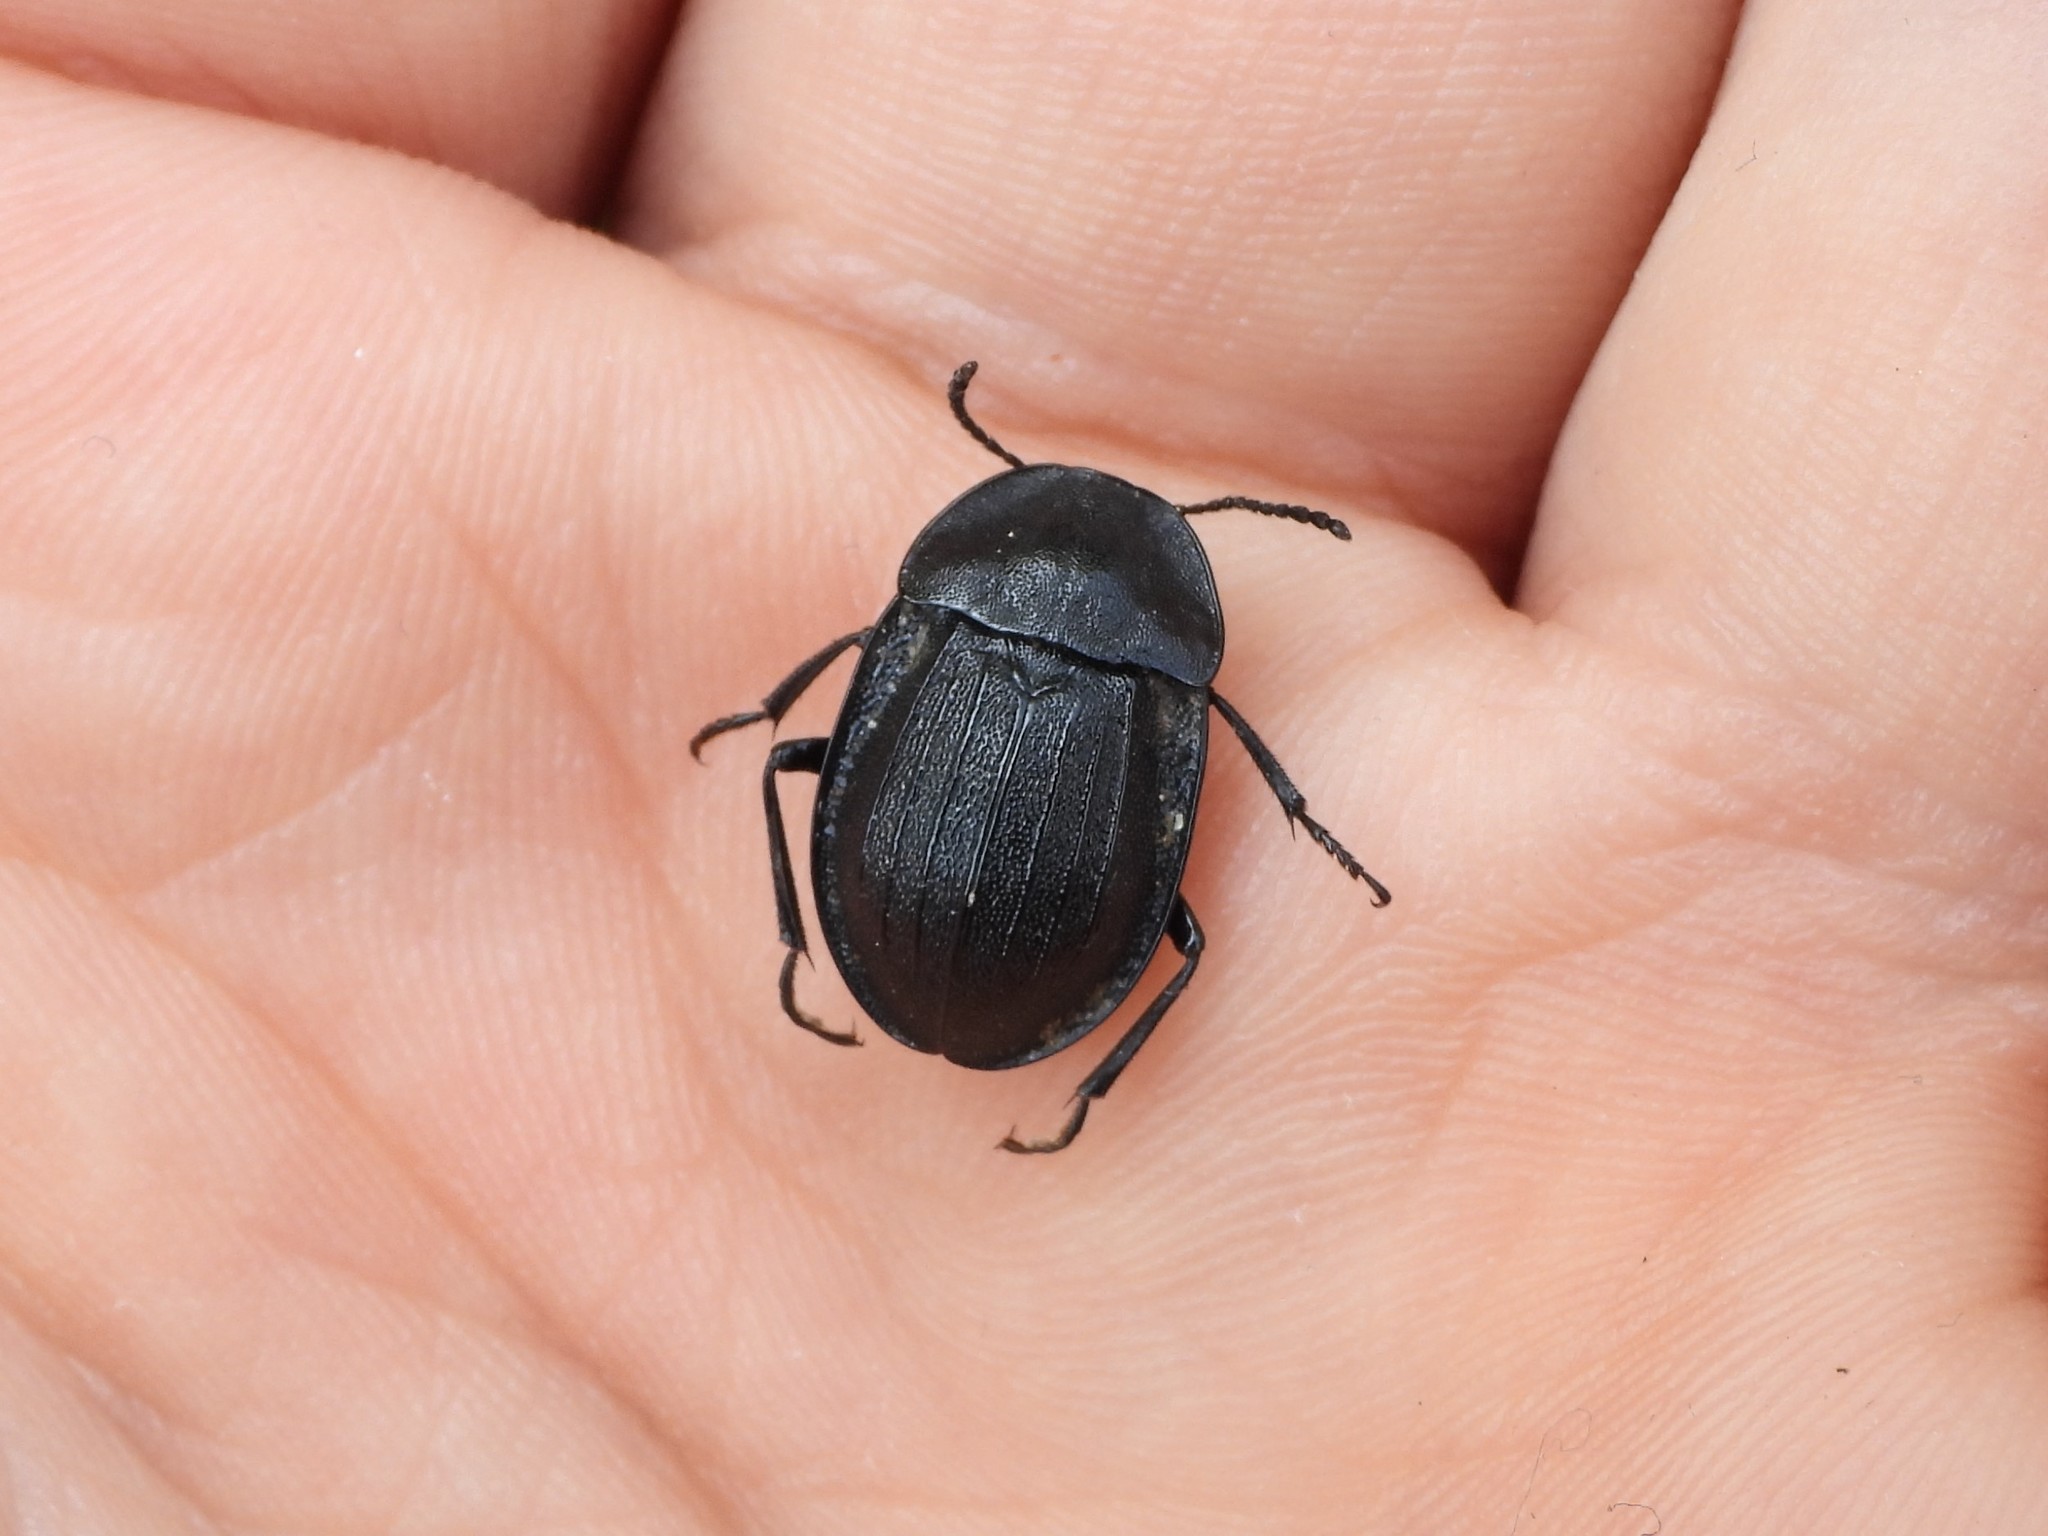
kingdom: Animalia
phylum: Arthropoda
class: Insecta
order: Coleoptera
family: Staphylinidae
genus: Silpha
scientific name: Silpha atrata
